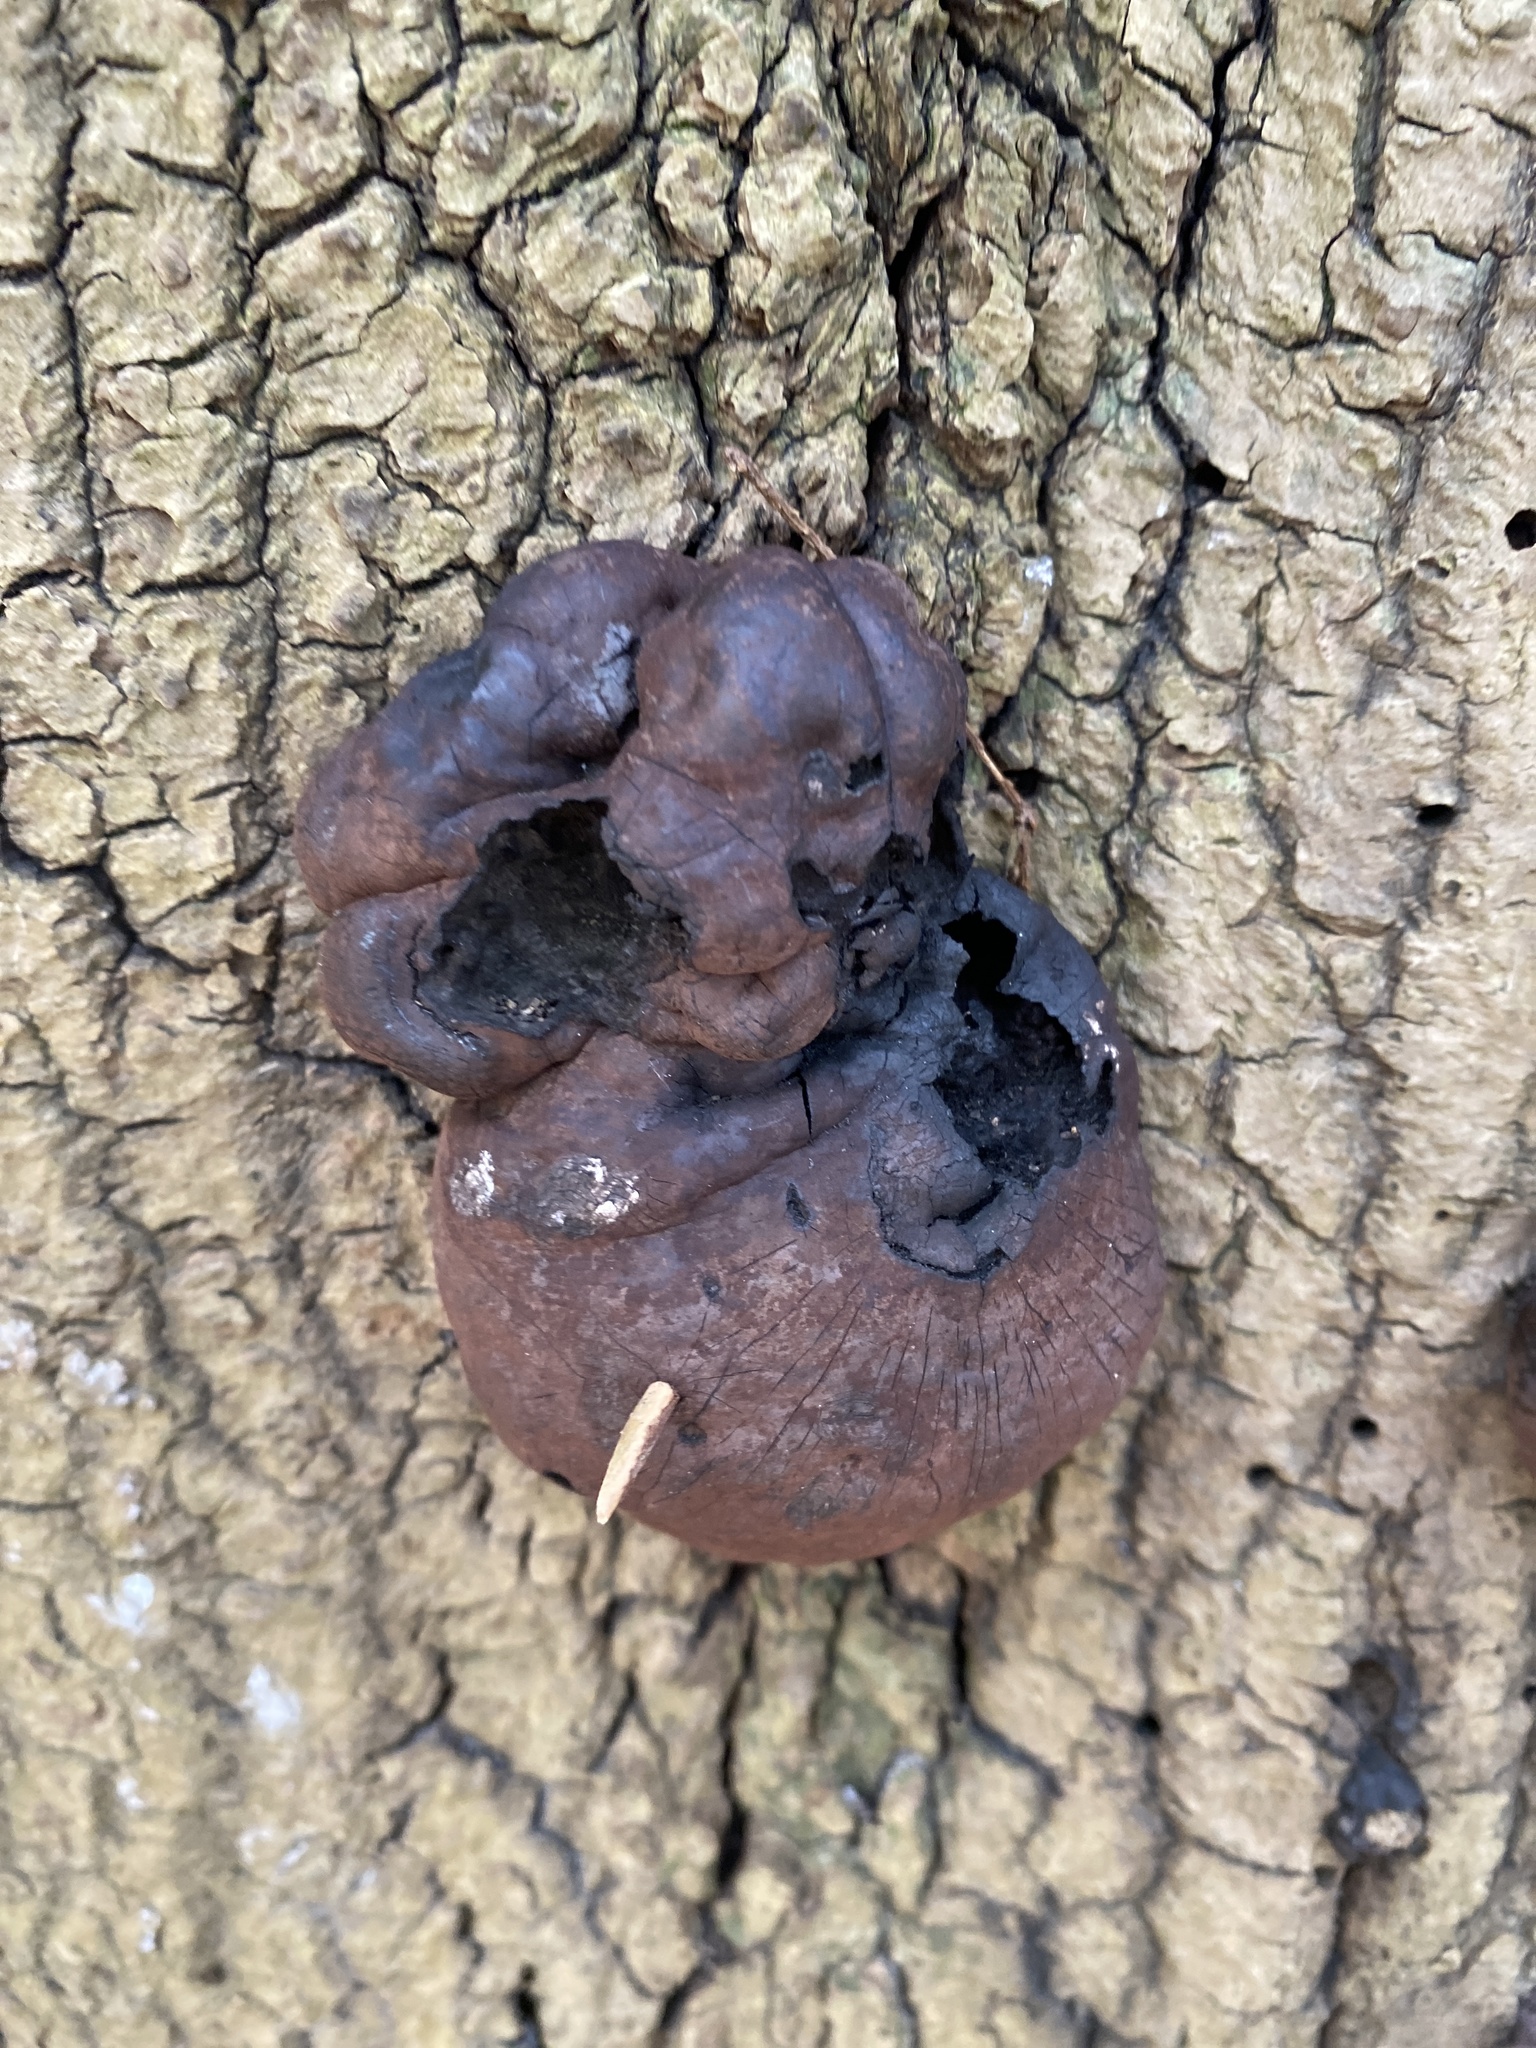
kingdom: Fungi
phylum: Ascomycota
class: Sordariomycetes
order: Xylariales
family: Hypoxylaceae
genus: Daldinia
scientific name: Daldinia concentrica
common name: Cramp balls
